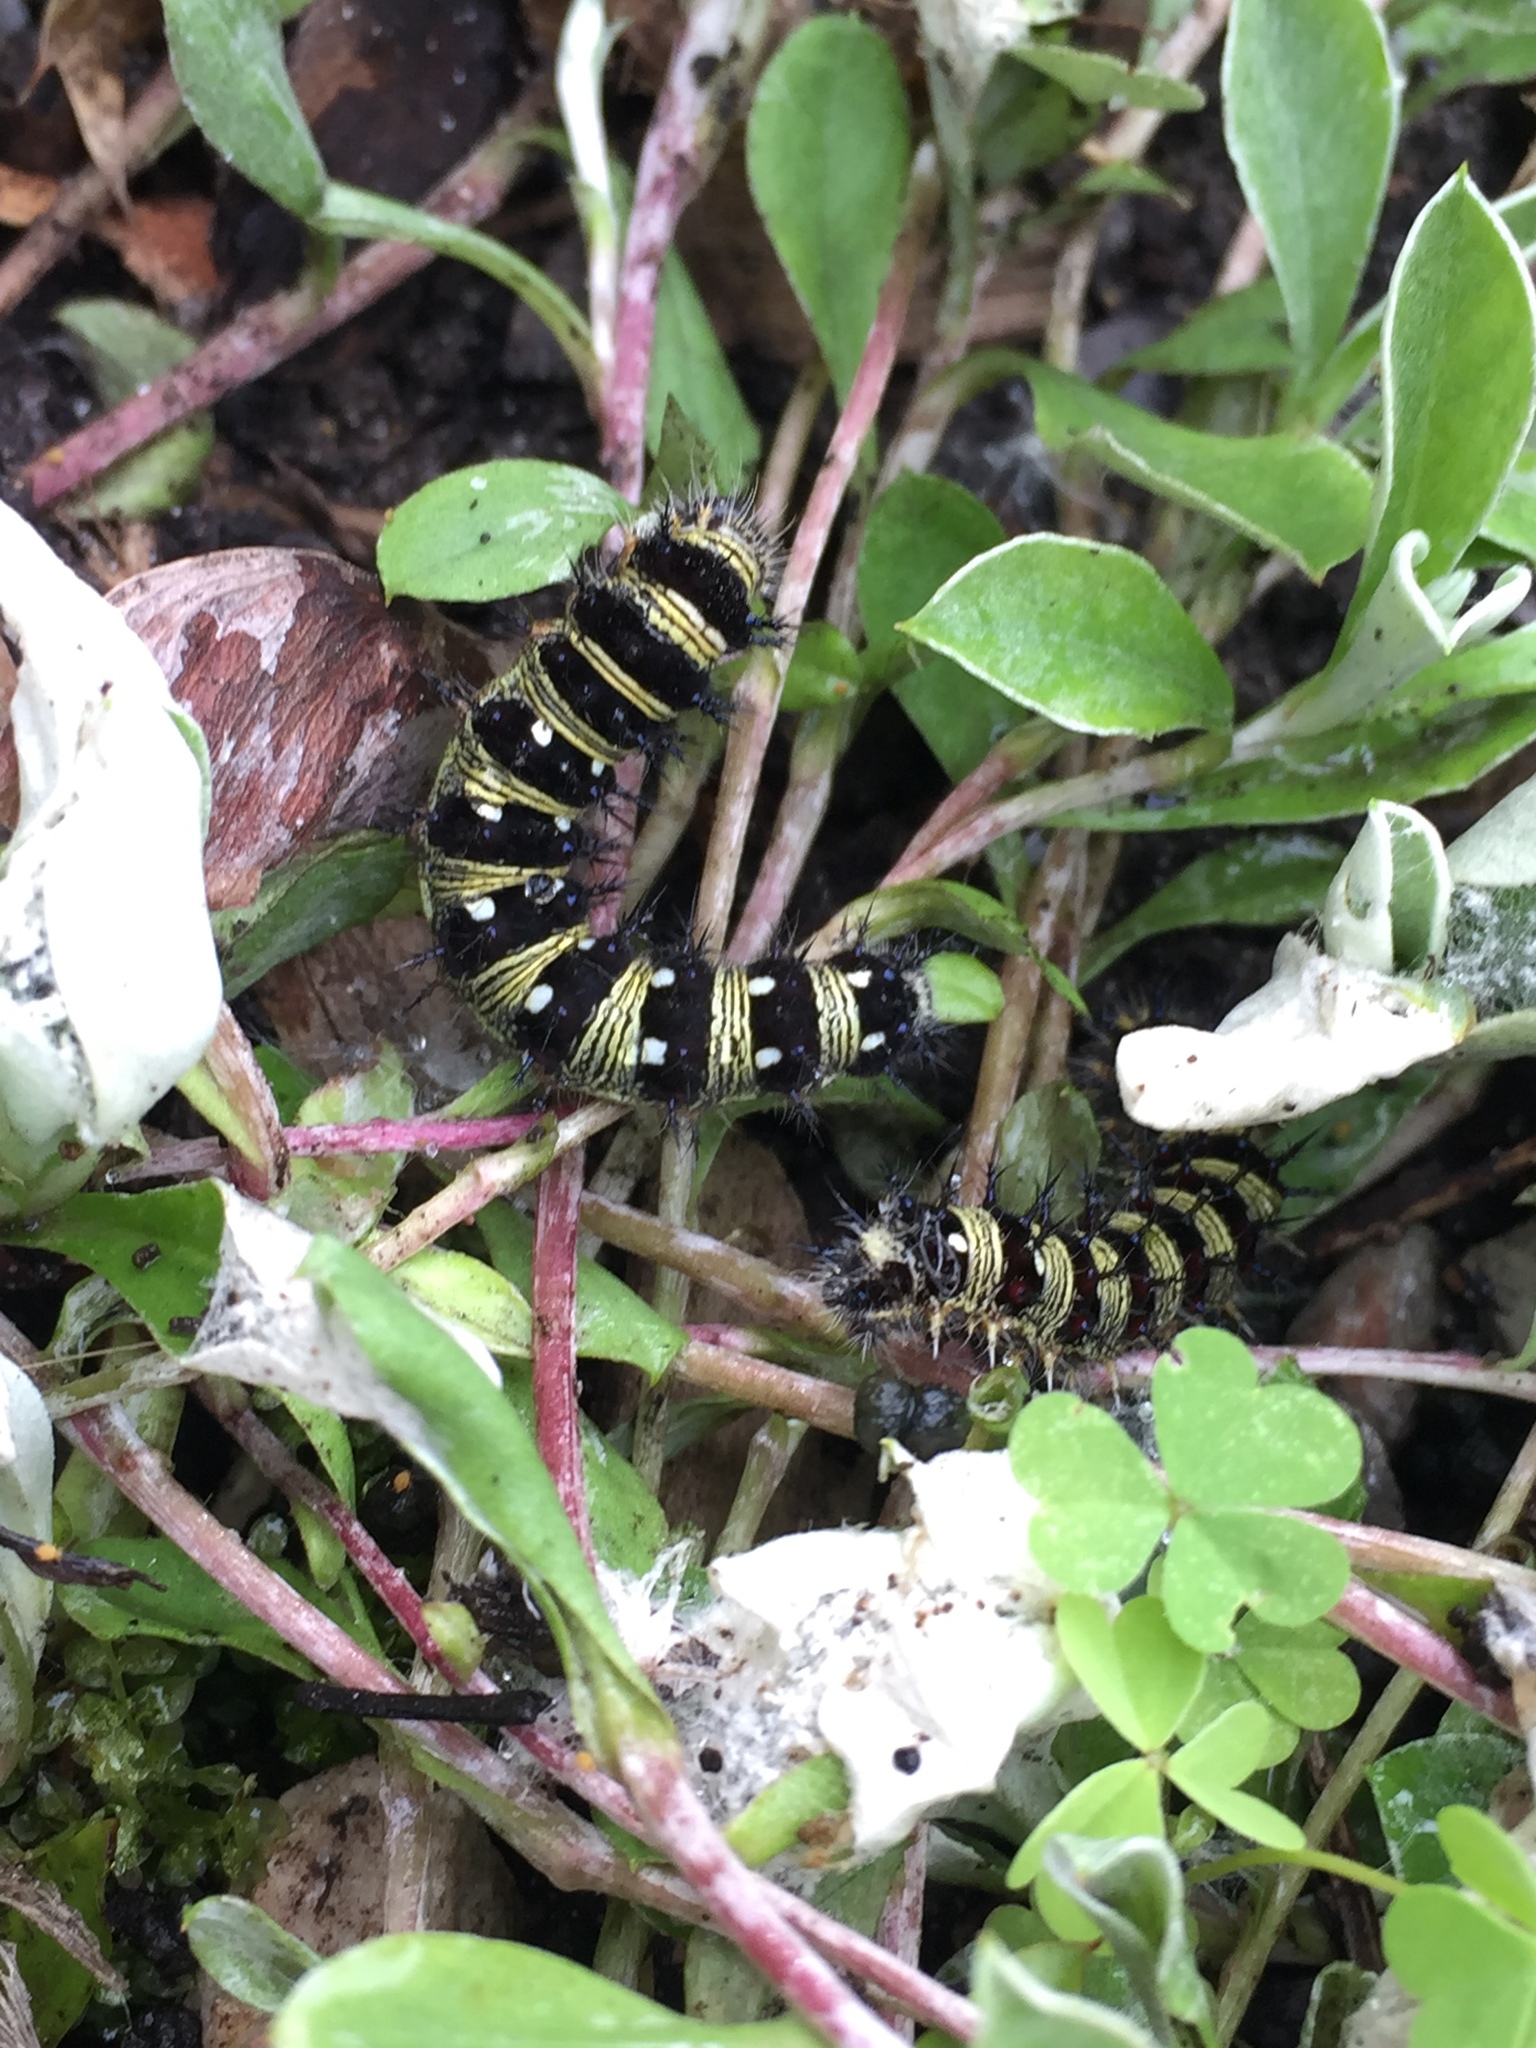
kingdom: Animalia
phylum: Arthropoda
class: Insecta
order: Lepidoptera
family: Nymphalidae
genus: Vanessa
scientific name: Vanessa virginiensis
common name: American lady
